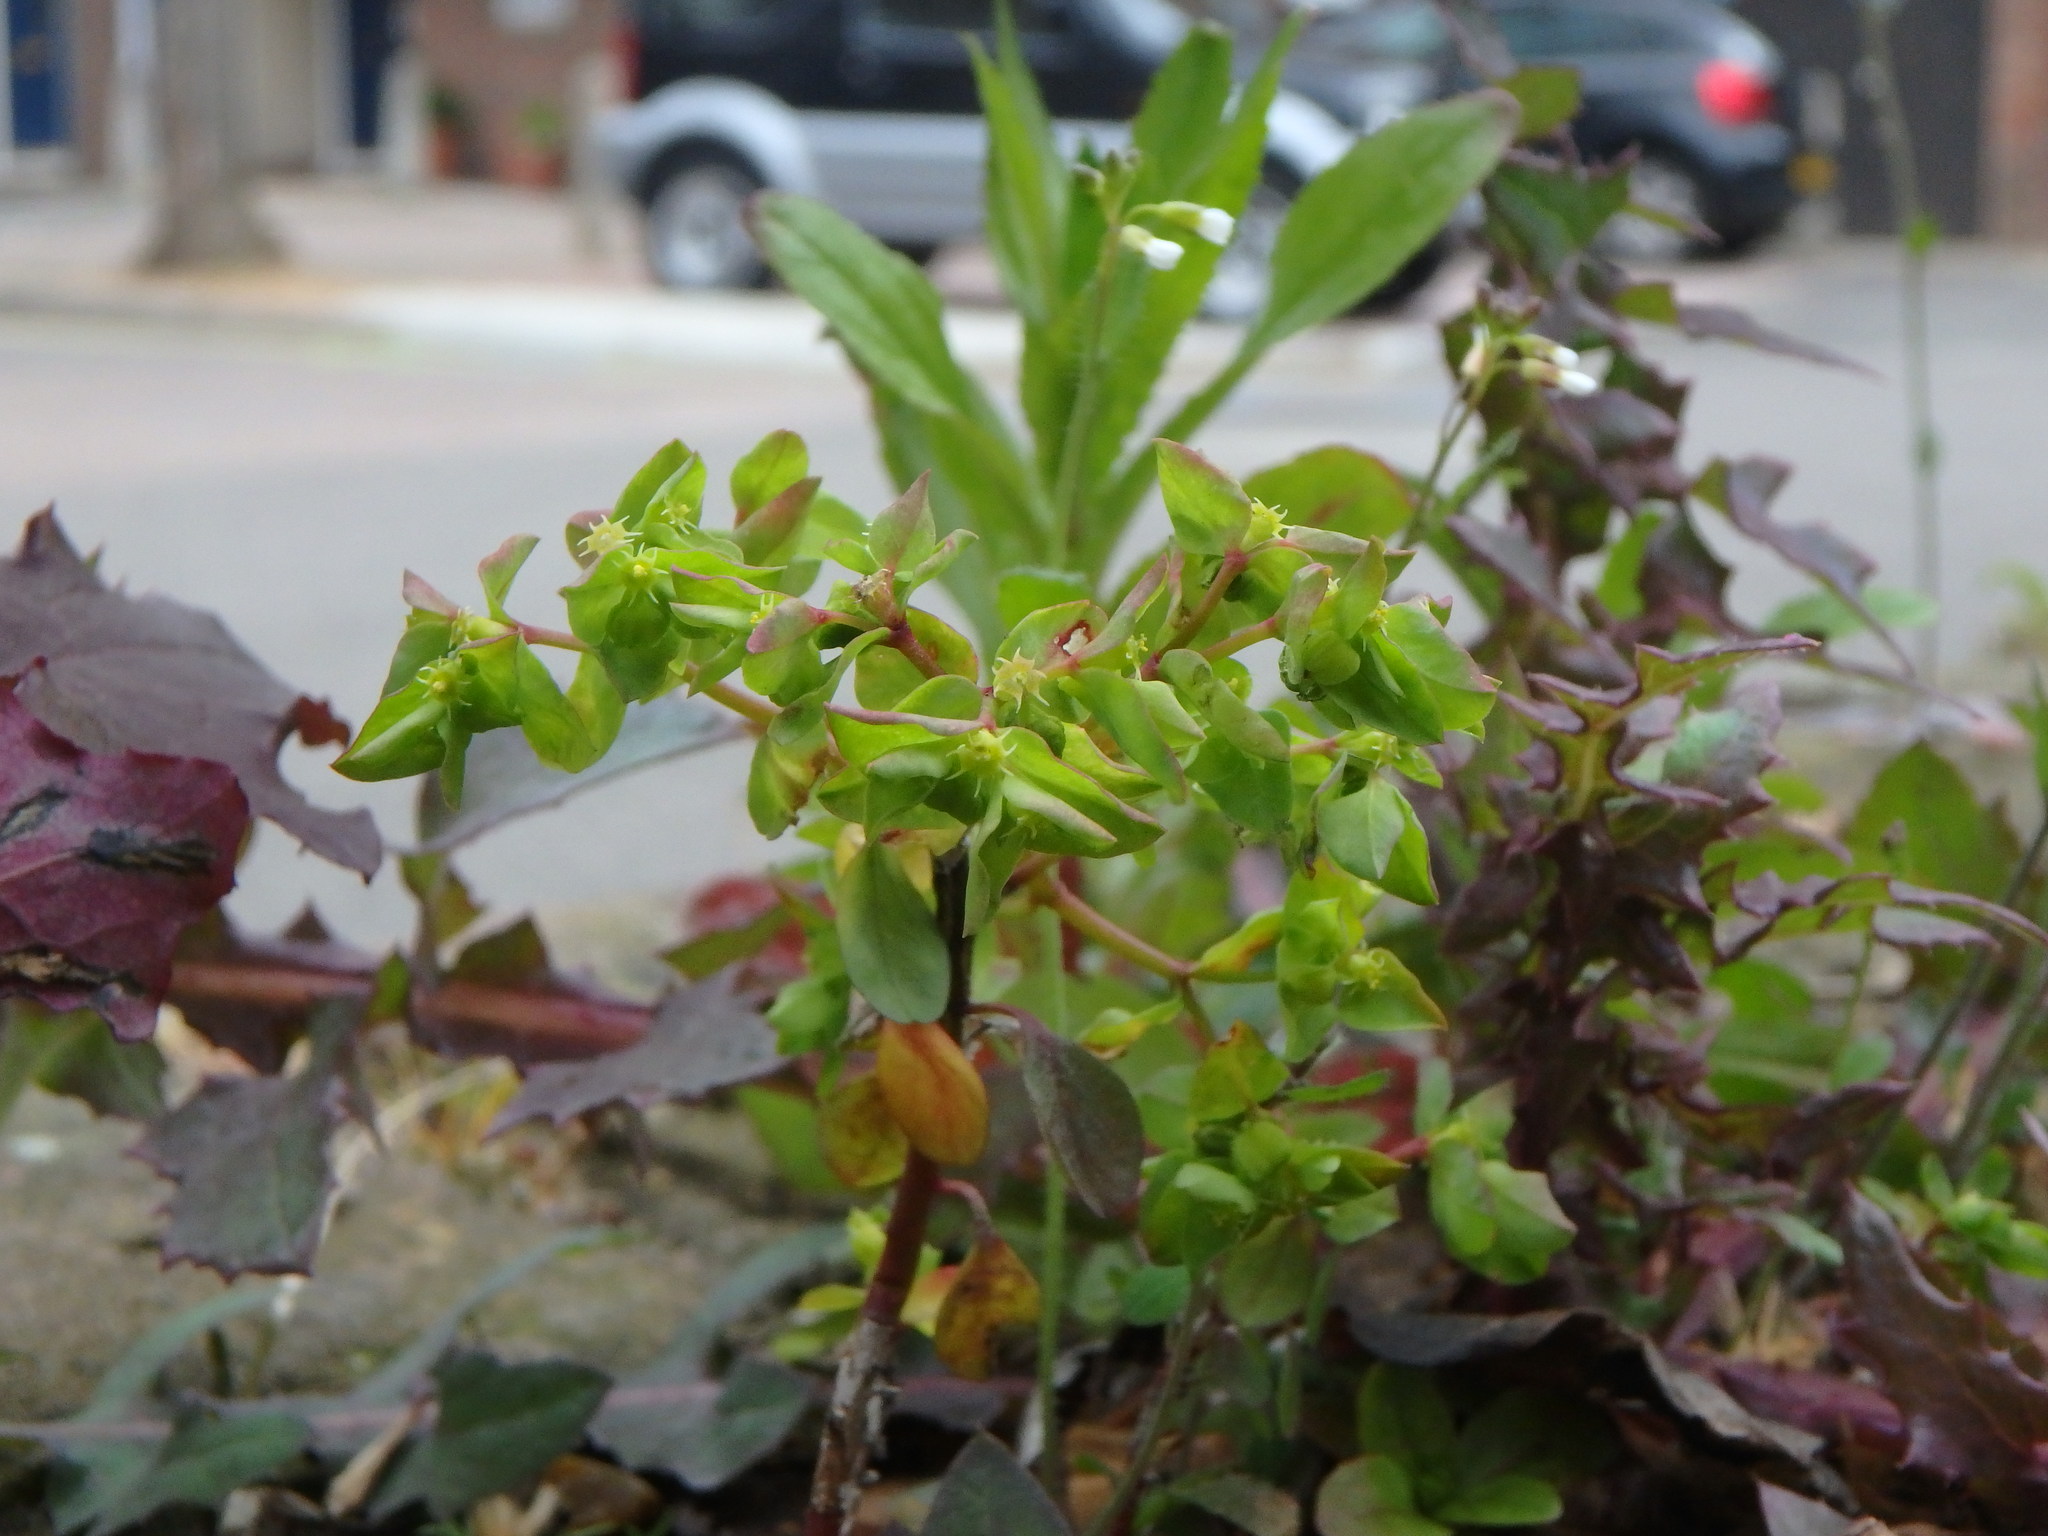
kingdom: Plantae
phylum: Tracheophyta
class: Magnoliopsida
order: Malpighiales
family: Euphorbiaceae
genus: Euphorbia
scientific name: Euphorbia peplus
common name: Petty spurge
